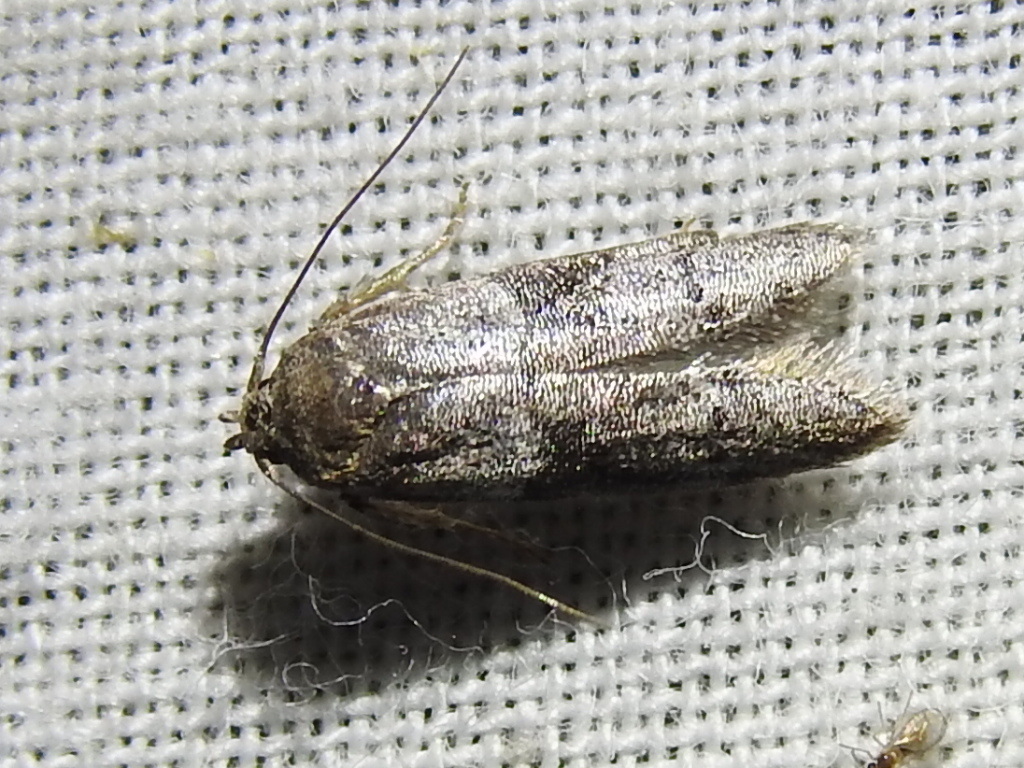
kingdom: Animalia
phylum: Arthropoda
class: Insecta
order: Lepidoptera
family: Blastobasidae
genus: Blastobasis
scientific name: Blastobasis glandulella
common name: Acorn moth
